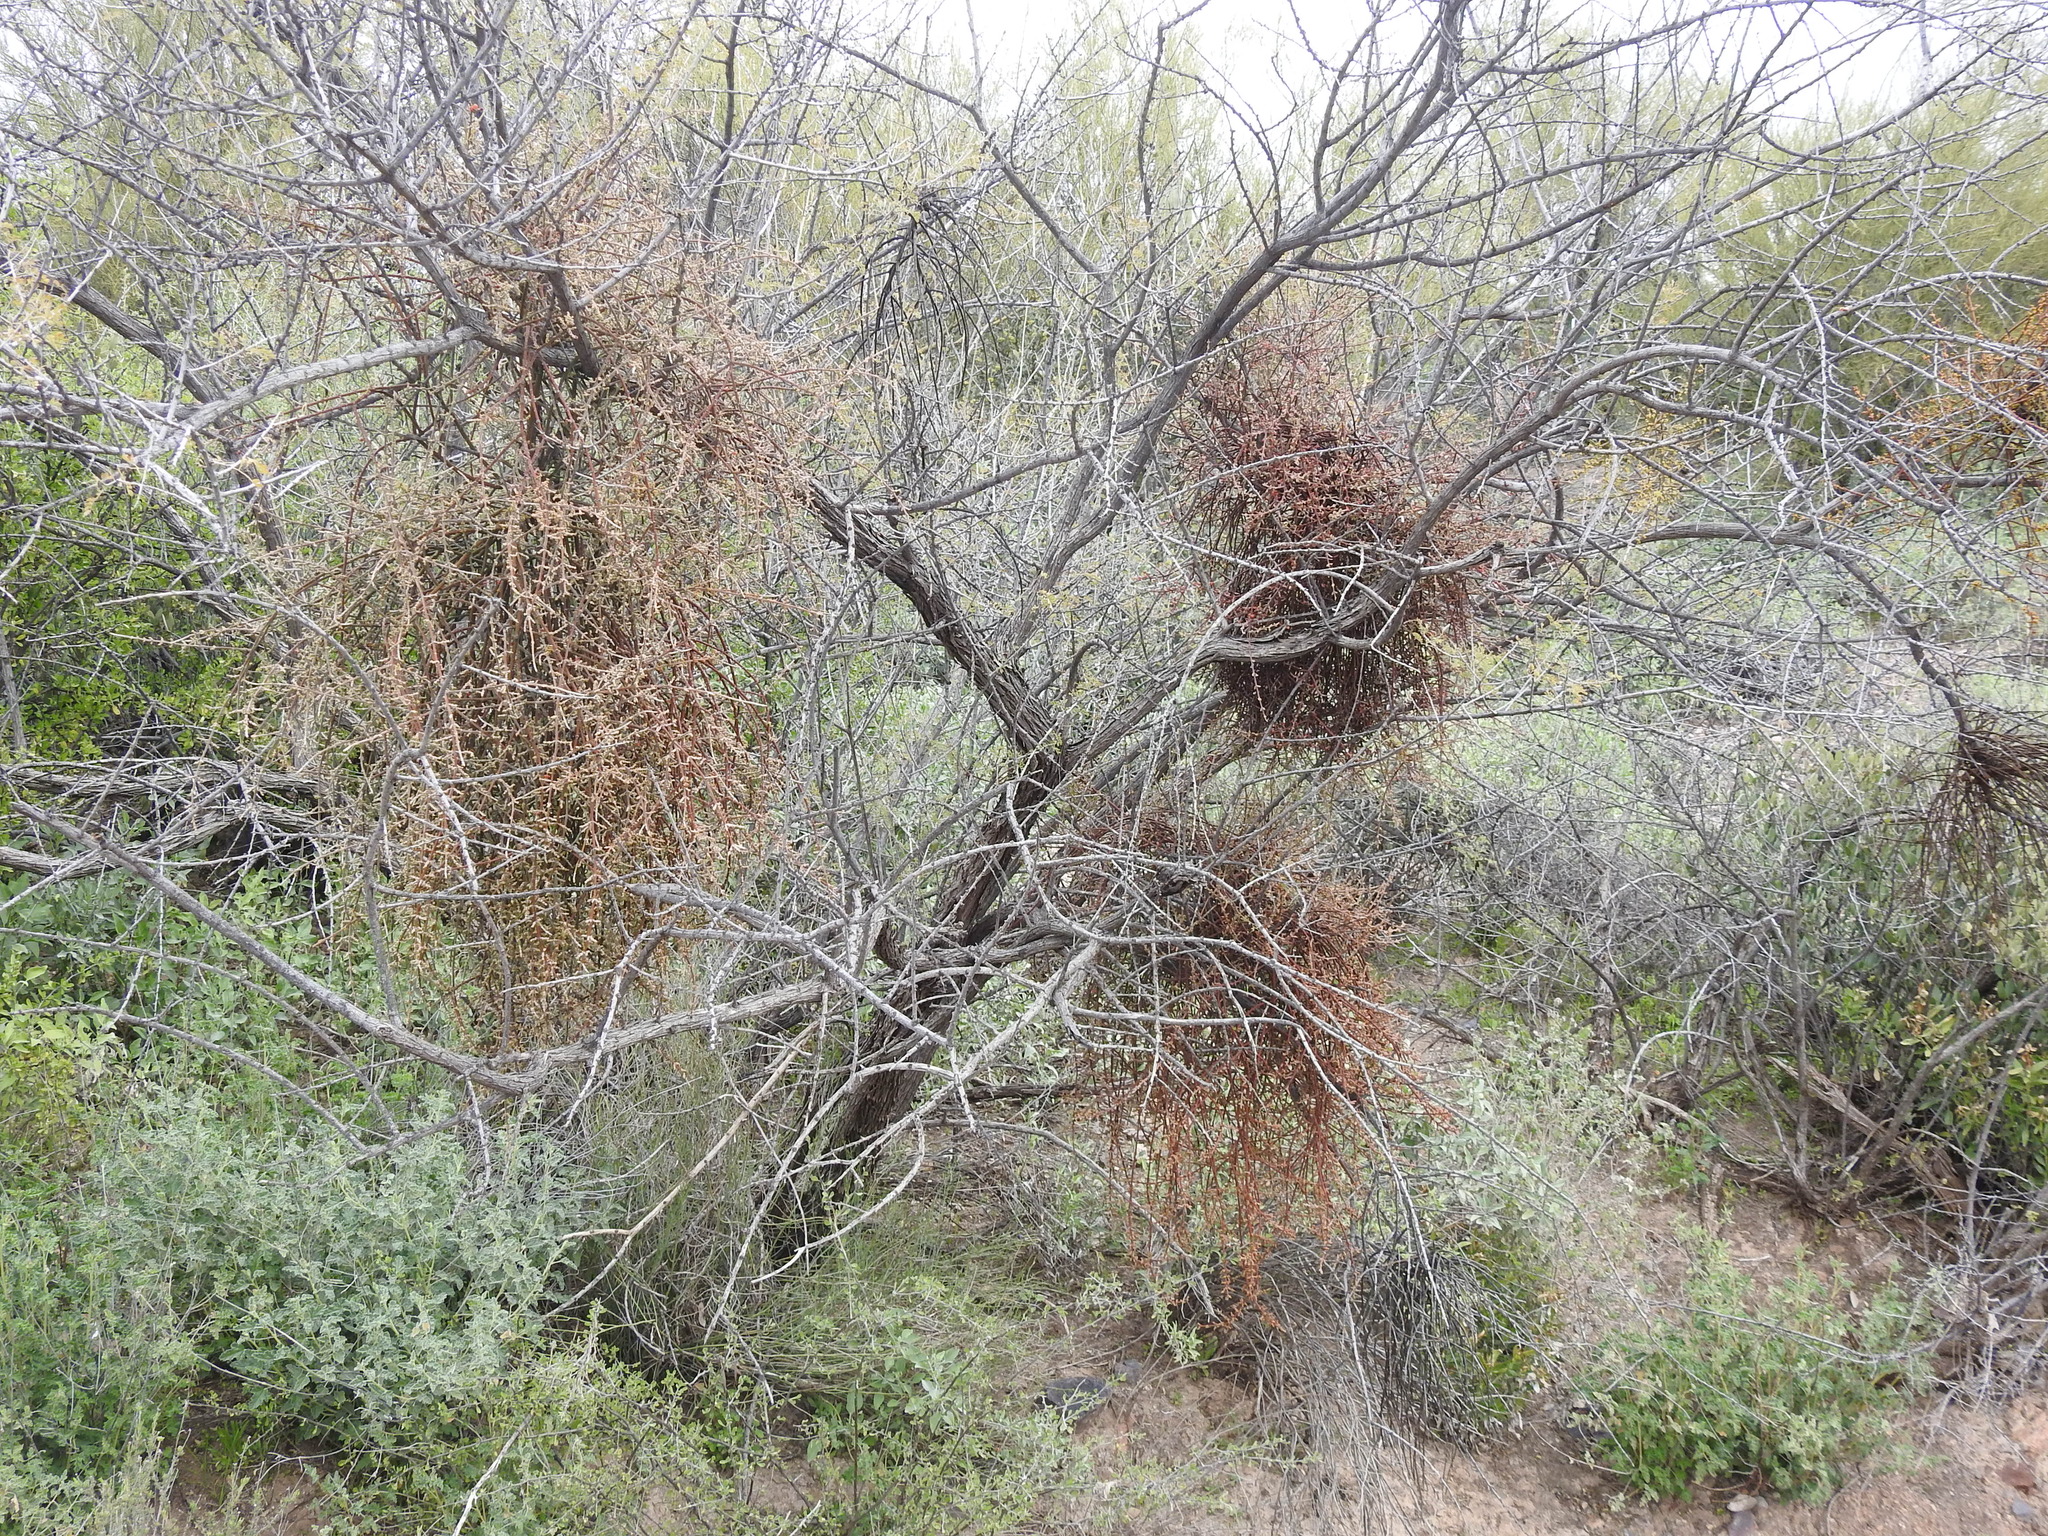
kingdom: Plantae
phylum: Tracheophyta
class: Magnoliopsida
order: Santalales
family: Viscaceae
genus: Phoradendron
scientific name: Phoradendron californicum
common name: Acacia mistletoe
